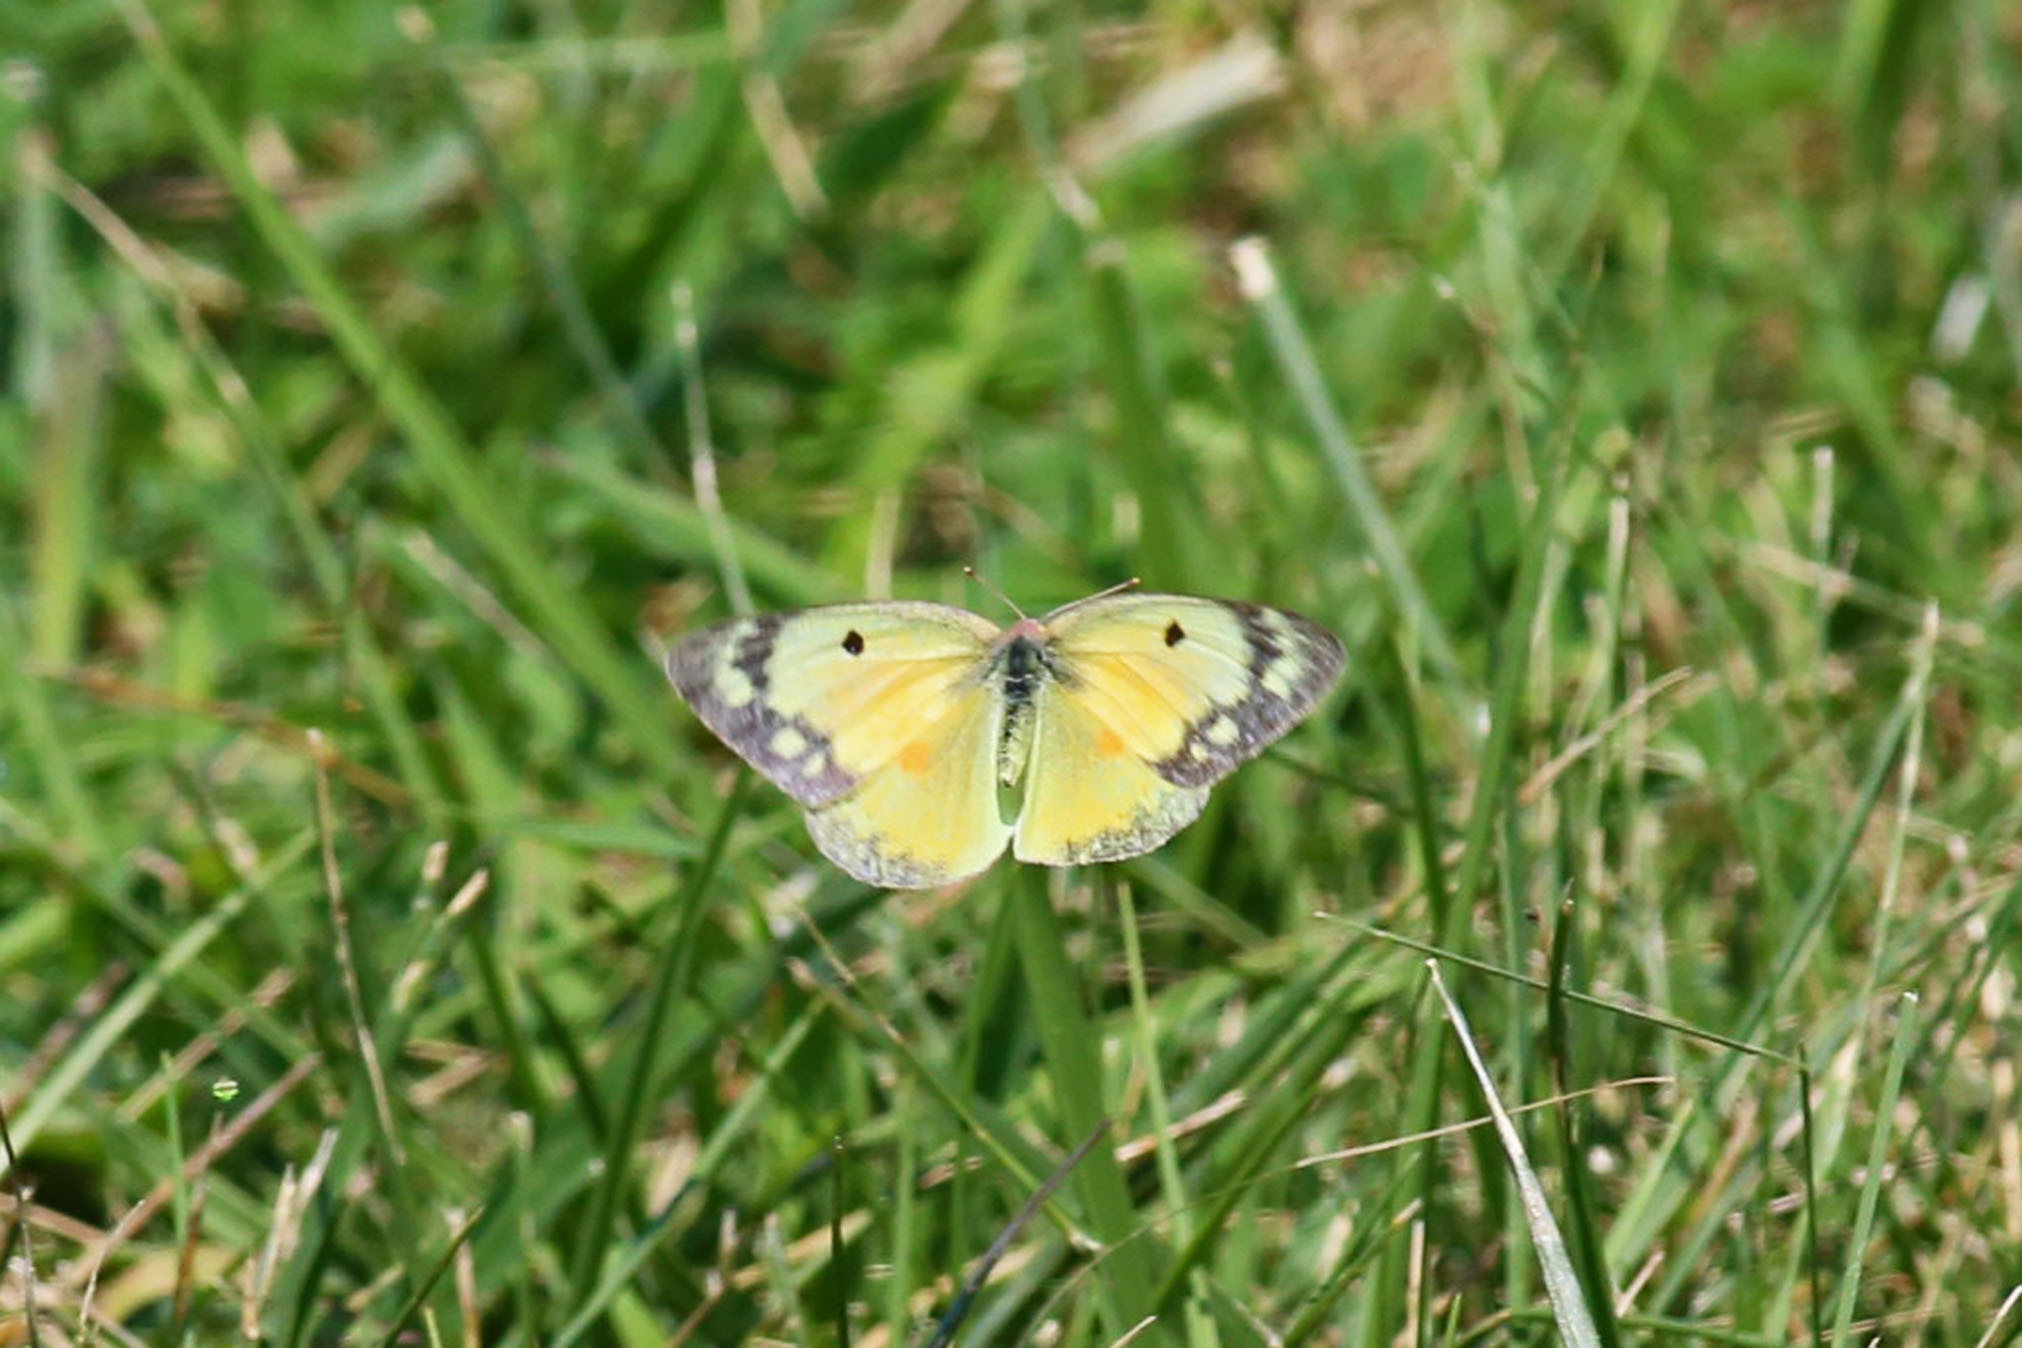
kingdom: Animalia
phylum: Arthropoda
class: Insecta
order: Lepidoptera
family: Pieridae
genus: Colias
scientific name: Colias eurytheme
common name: Alfalfa butterfly
